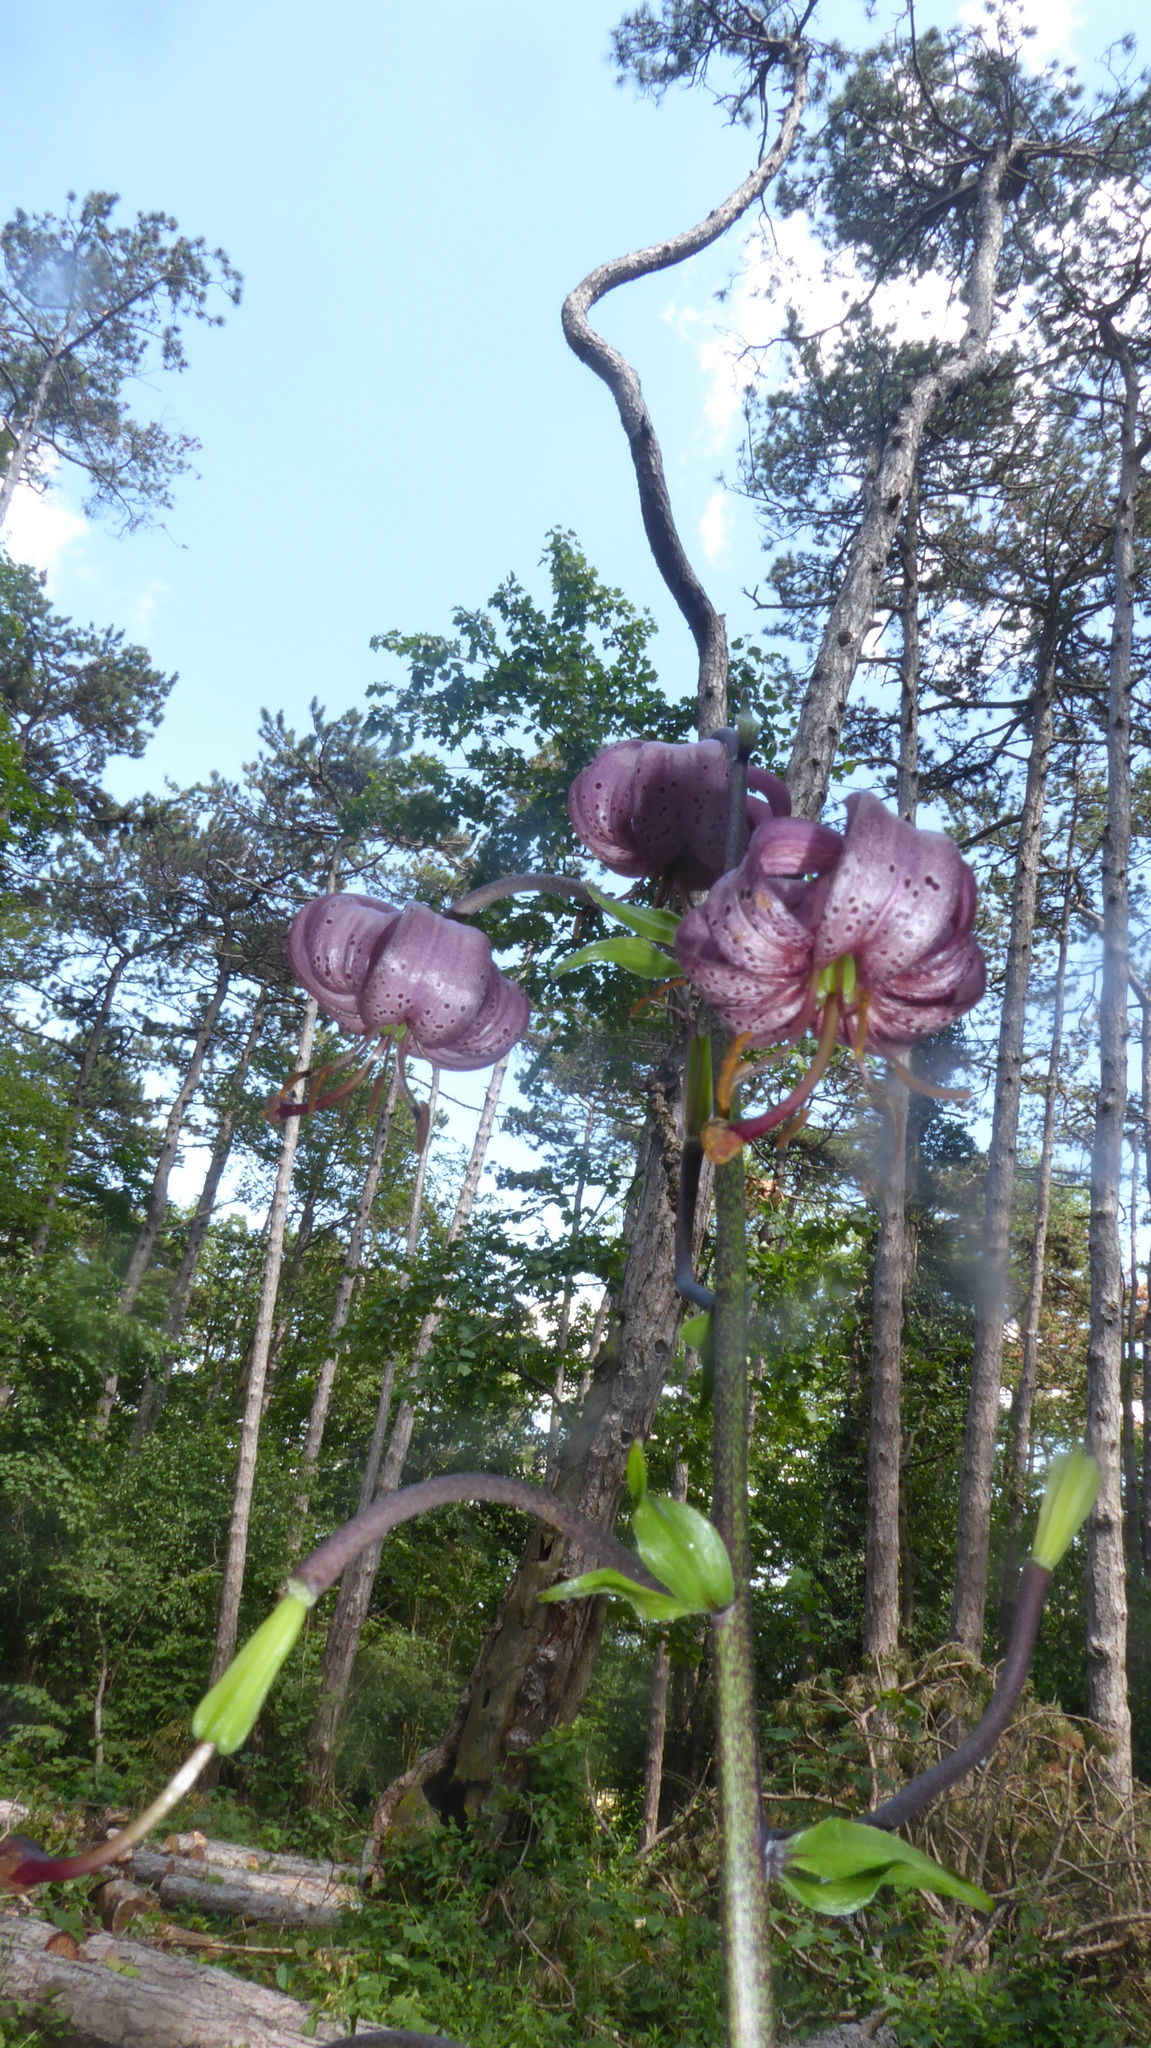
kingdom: Plantae
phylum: Tracheophyta
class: Liliopsida
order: Liliales
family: Liliaceae
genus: Lilium
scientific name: Lilium martagon
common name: Martagon lily
